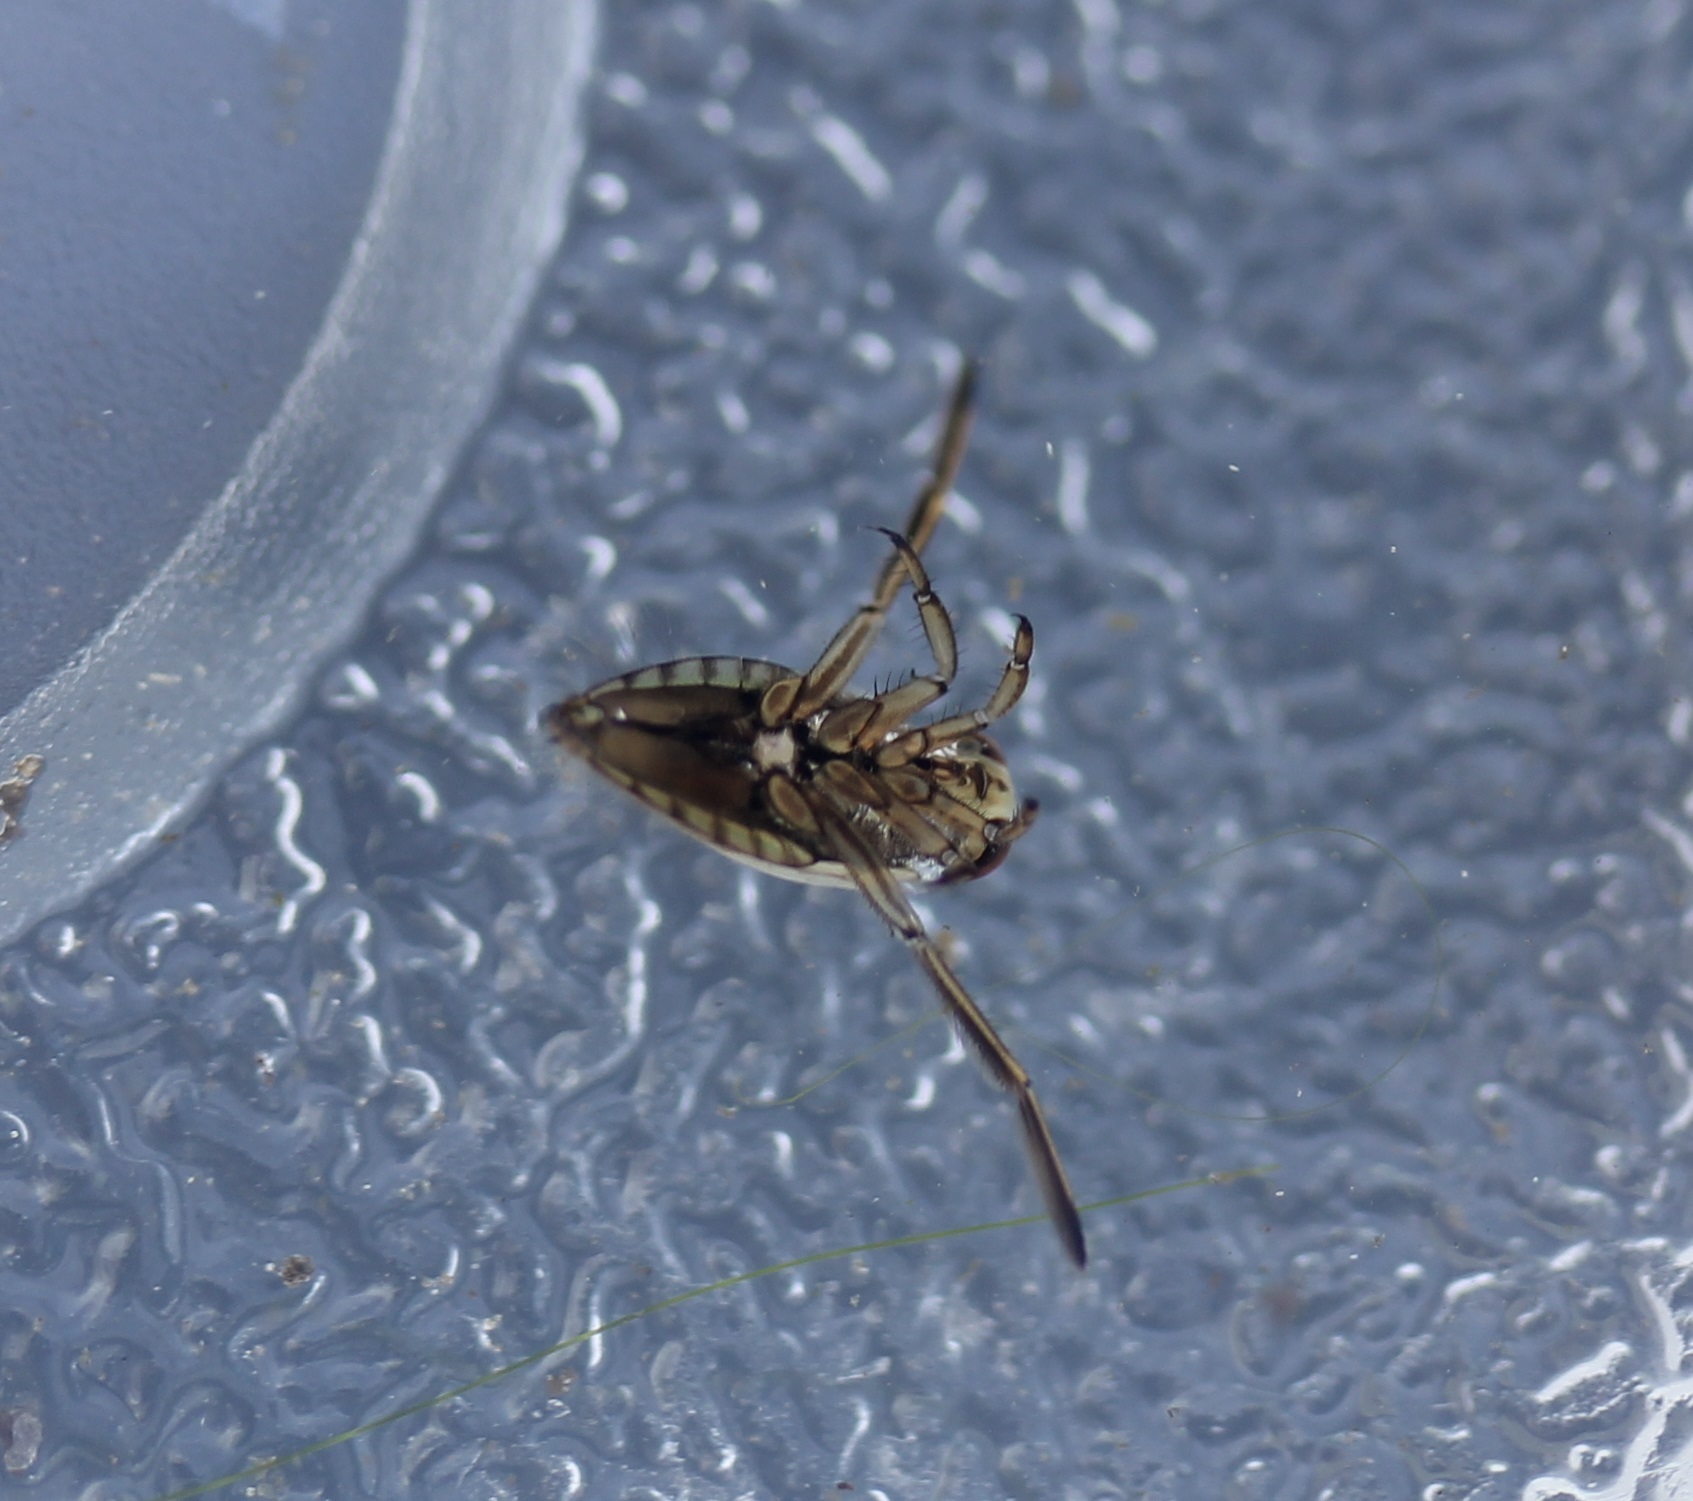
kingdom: Animalia
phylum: Arthropoda
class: Insecta
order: Hemiptera
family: Notonectidae
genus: Notonecta
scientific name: Notonecta
